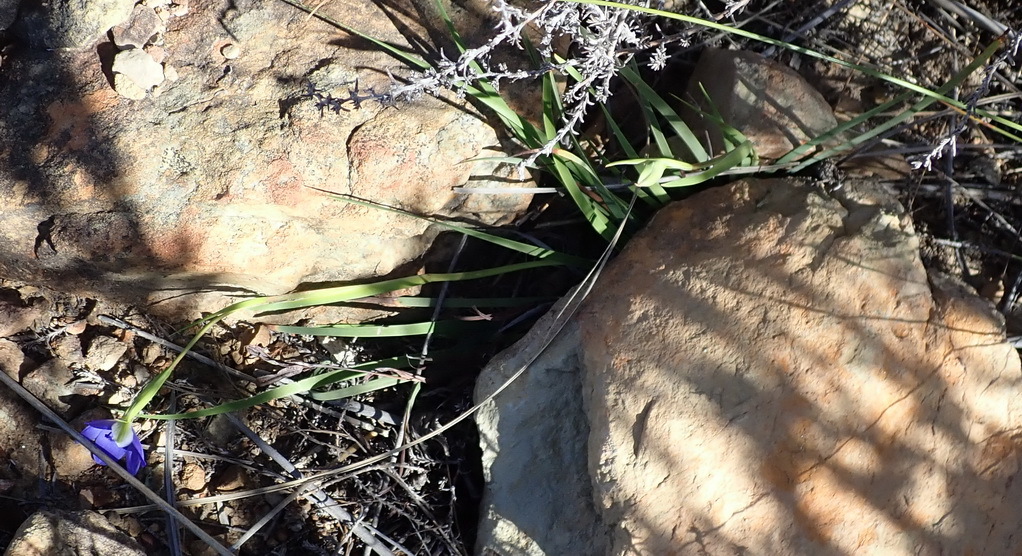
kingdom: Plantae
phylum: Tracheophyta
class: Liliopsida
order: Asparagales
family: Iridaceae
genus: Aristea
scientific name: Aristea nana
